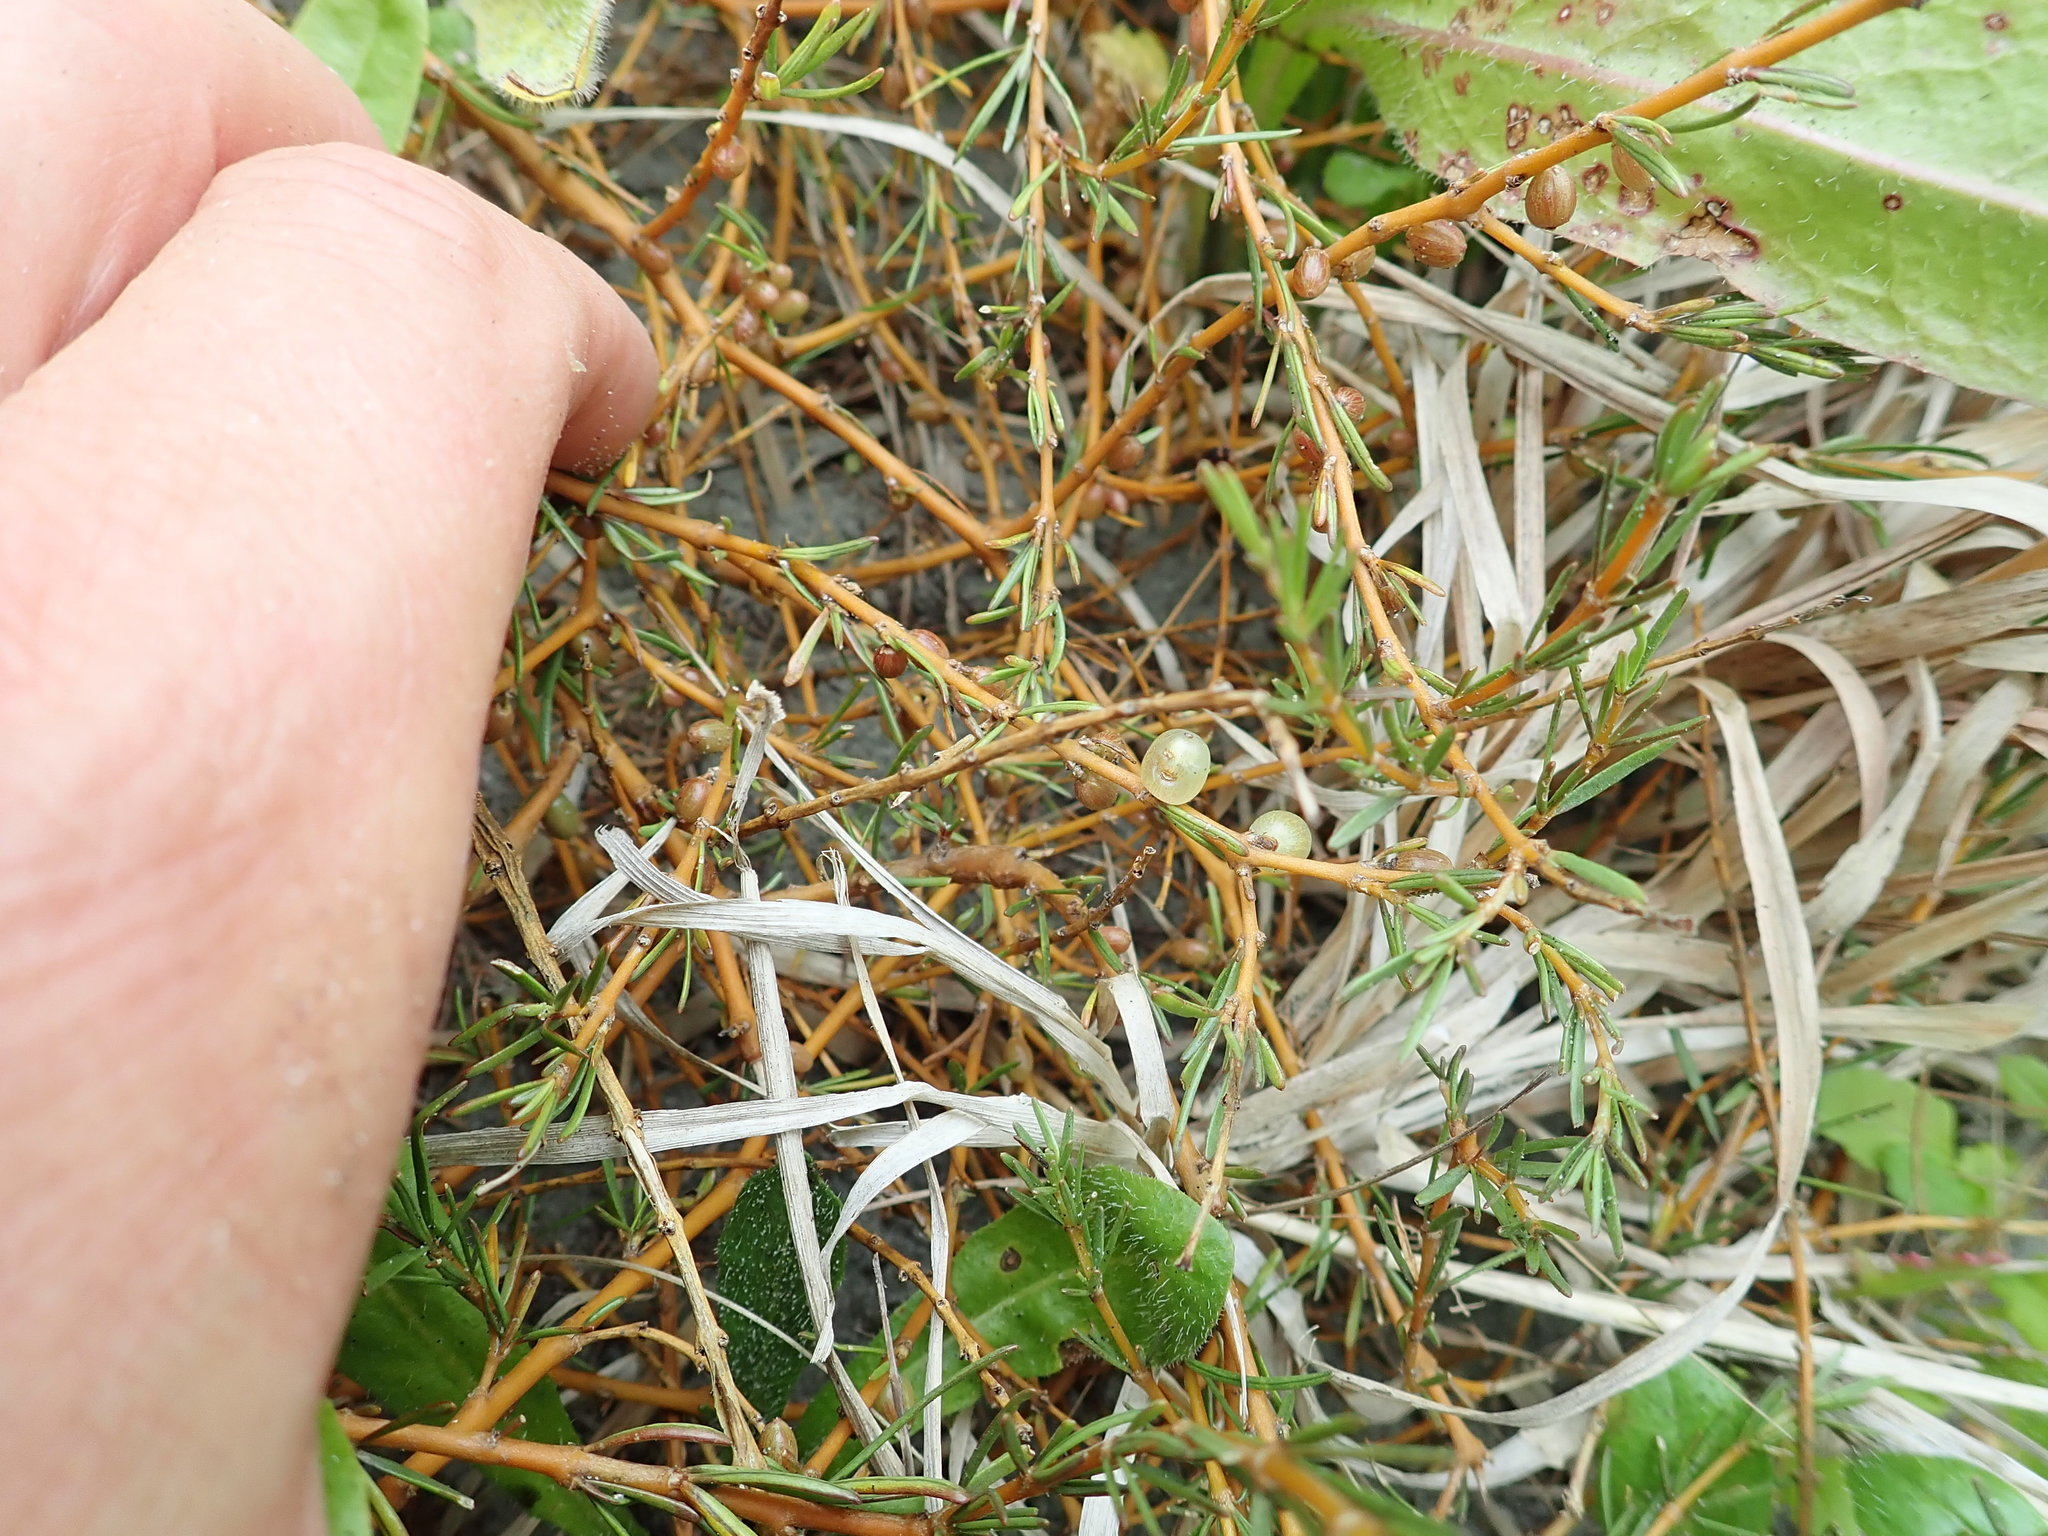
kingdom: Plantae
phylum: Tracheophyta
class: Magnoliopsida
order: Gentianales
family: Rubiaceae
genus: Coprosma
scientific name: Coprosma acerosa
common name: Sand coprosma
